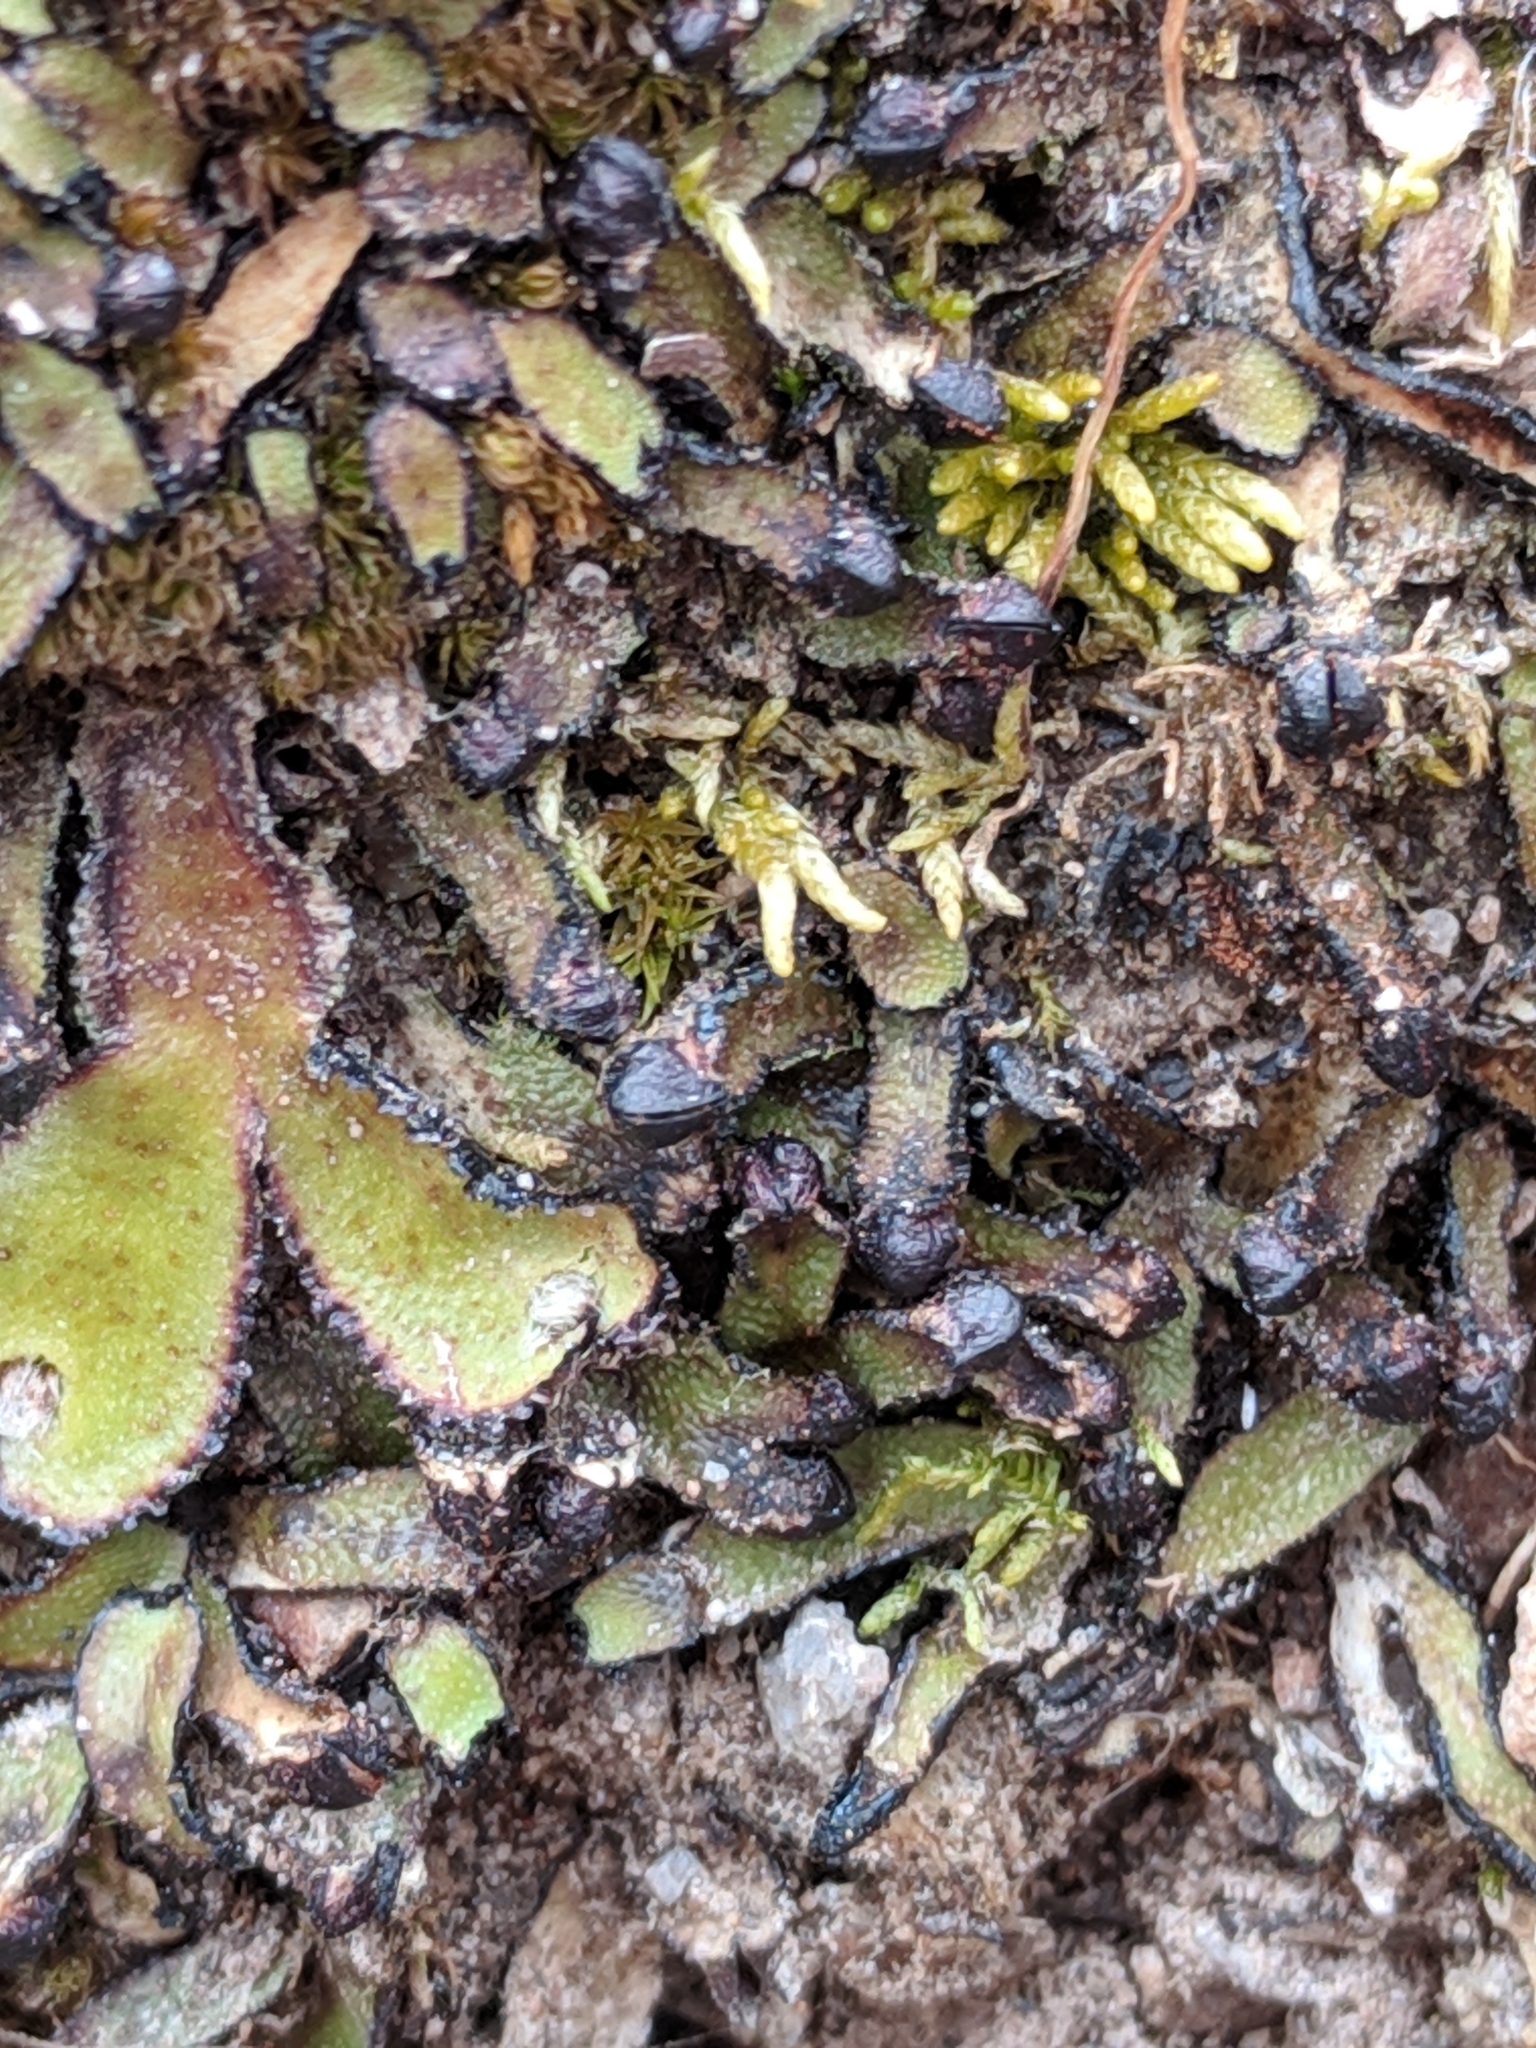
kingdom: Plantae
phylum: Marchantiophyta
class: Marchantiopsida
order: Marchantiales
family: Targioniaceae
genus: Targionia
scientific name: Targionia hypophylla
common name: Orobus-seed liverwort
